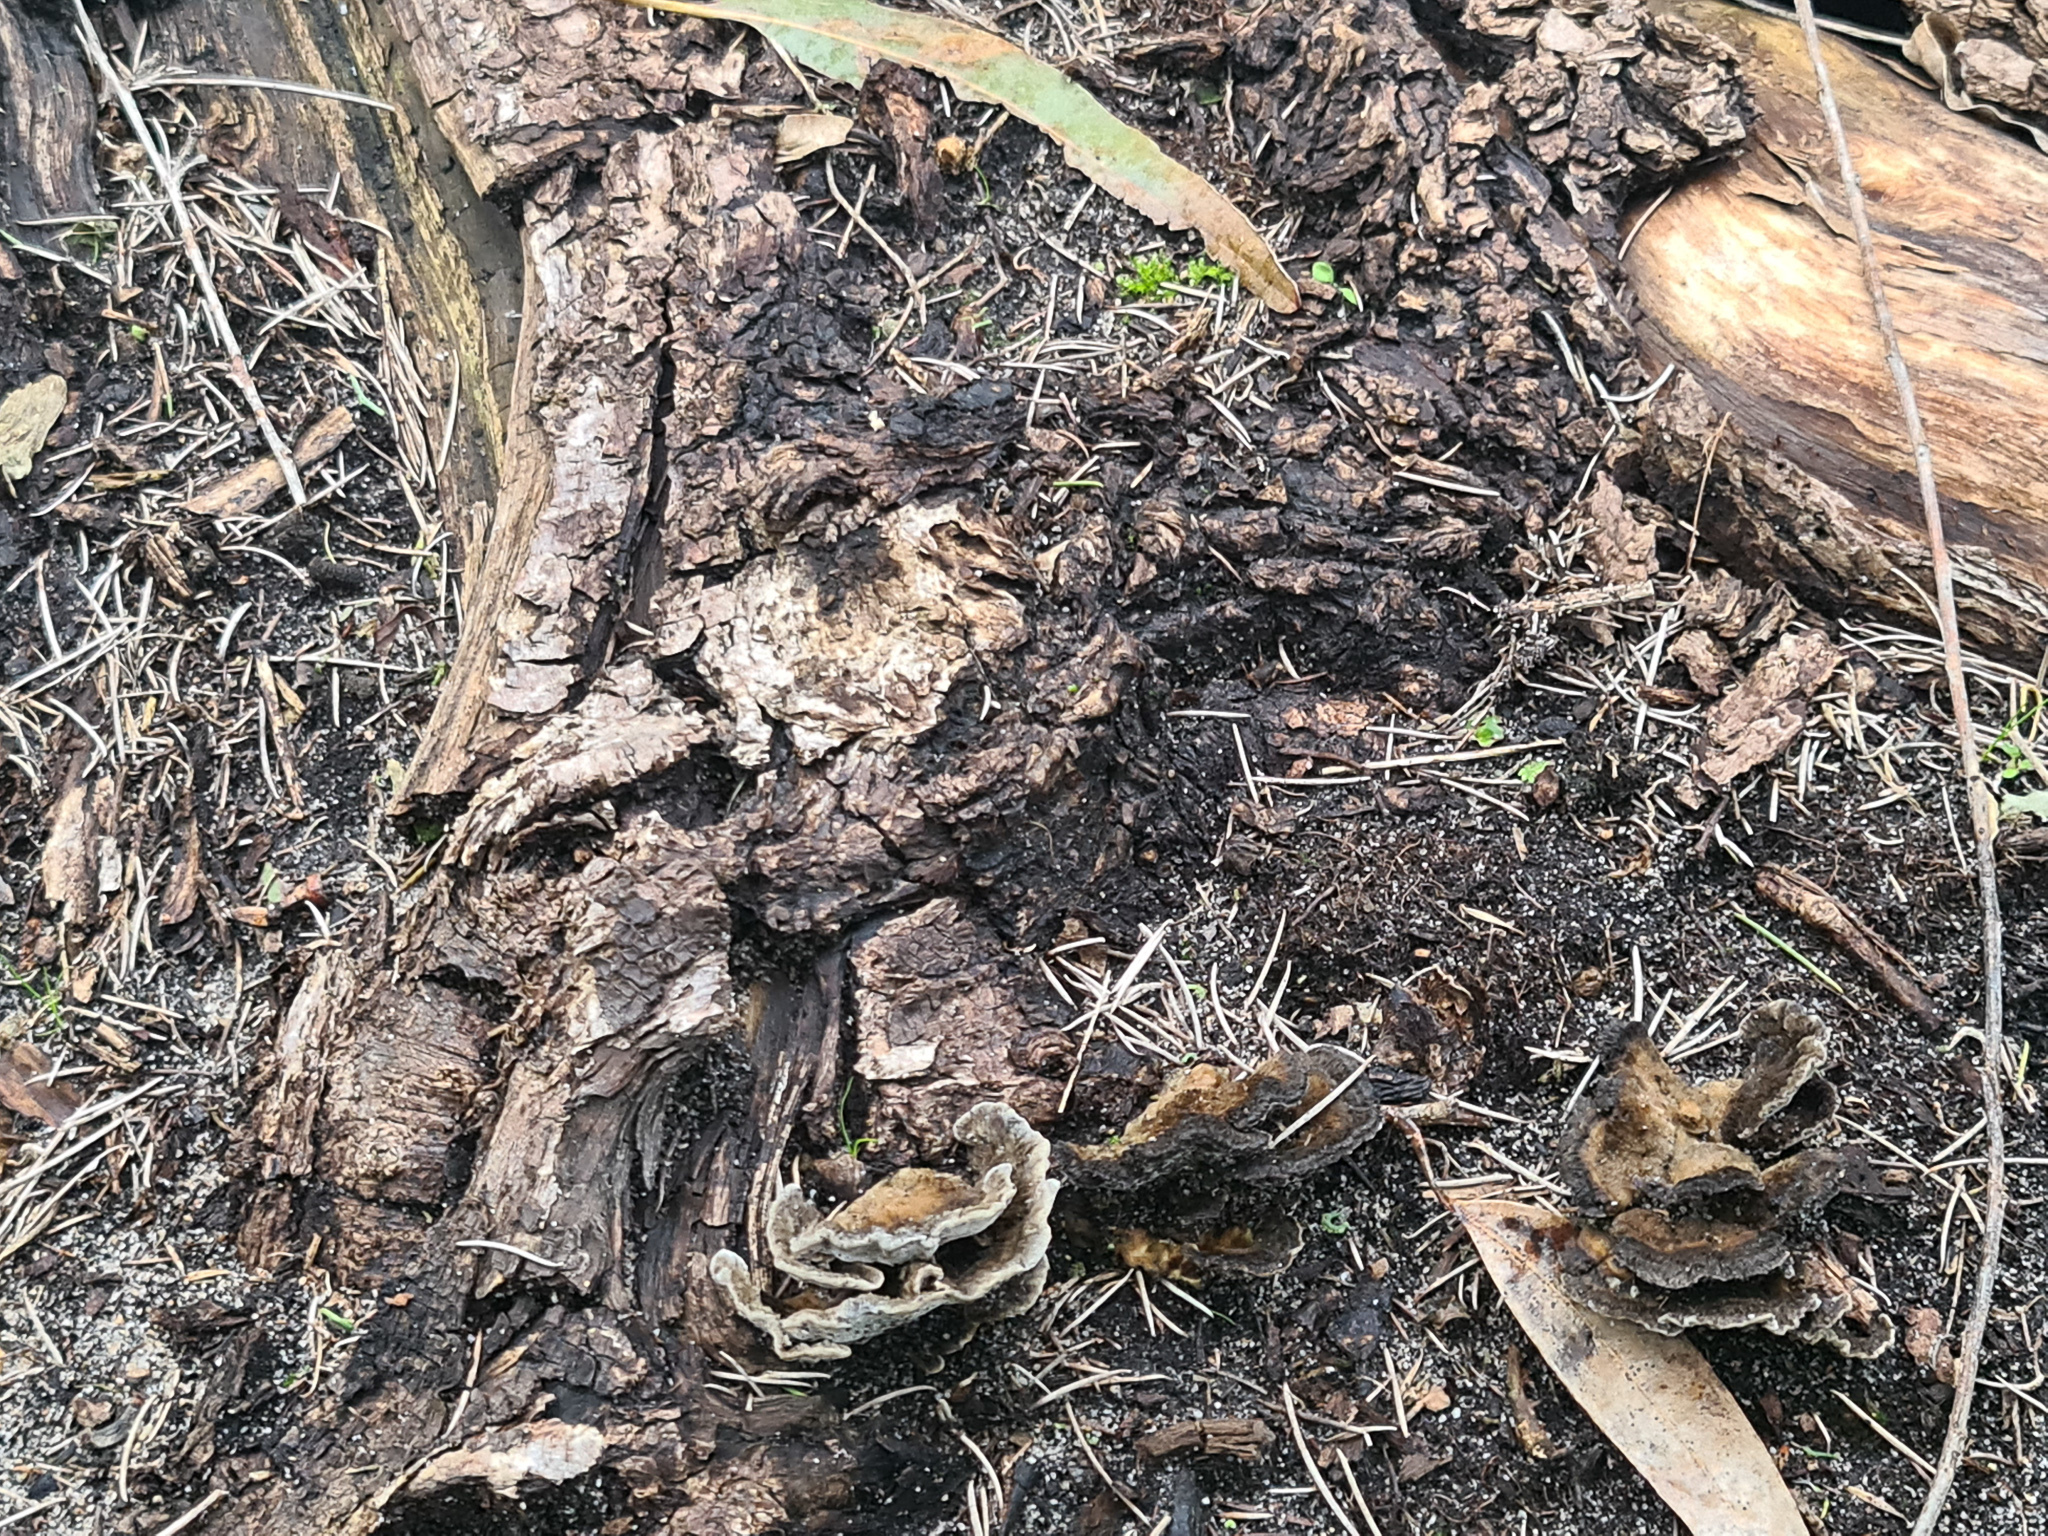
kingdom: Fungi
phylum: Basidiomycota
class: Agaricomycetes
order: Polyporales
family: Polyporaceae
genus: Trametes
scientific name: Trametes versicolor
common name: Turkeytail
